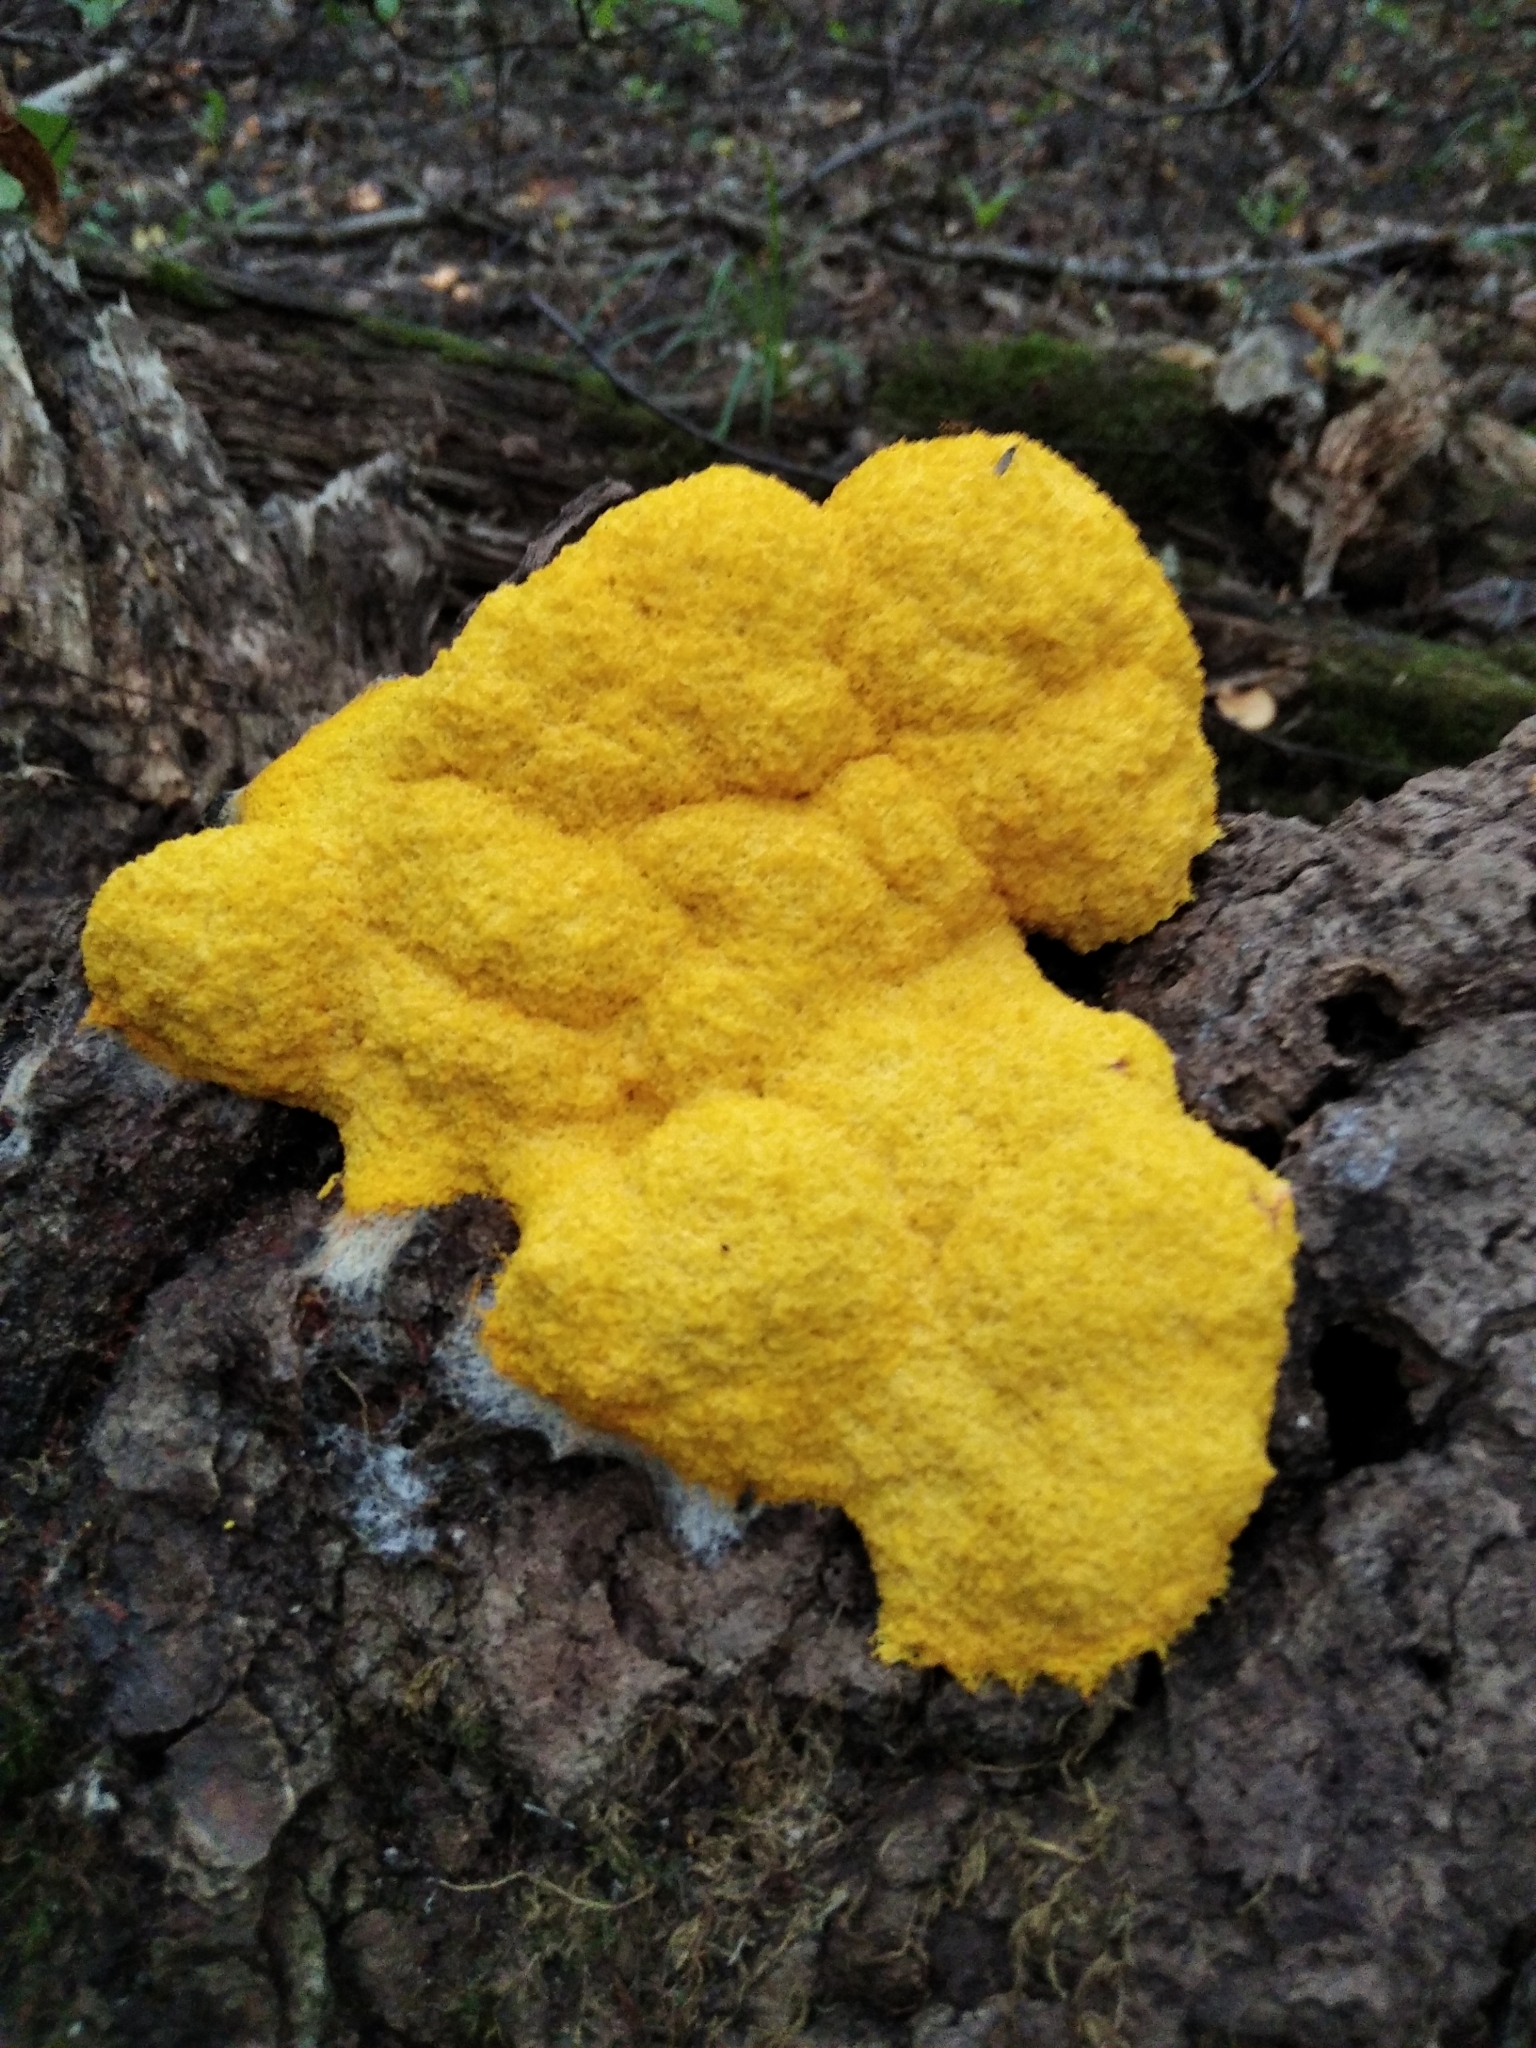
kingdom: Protozoa
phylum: Mycetozoa
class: Myxomycetes
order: Physarales
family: Physaraceae
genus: Fuligo
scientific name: Fuligo septica
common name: Dog vomit slime mold
